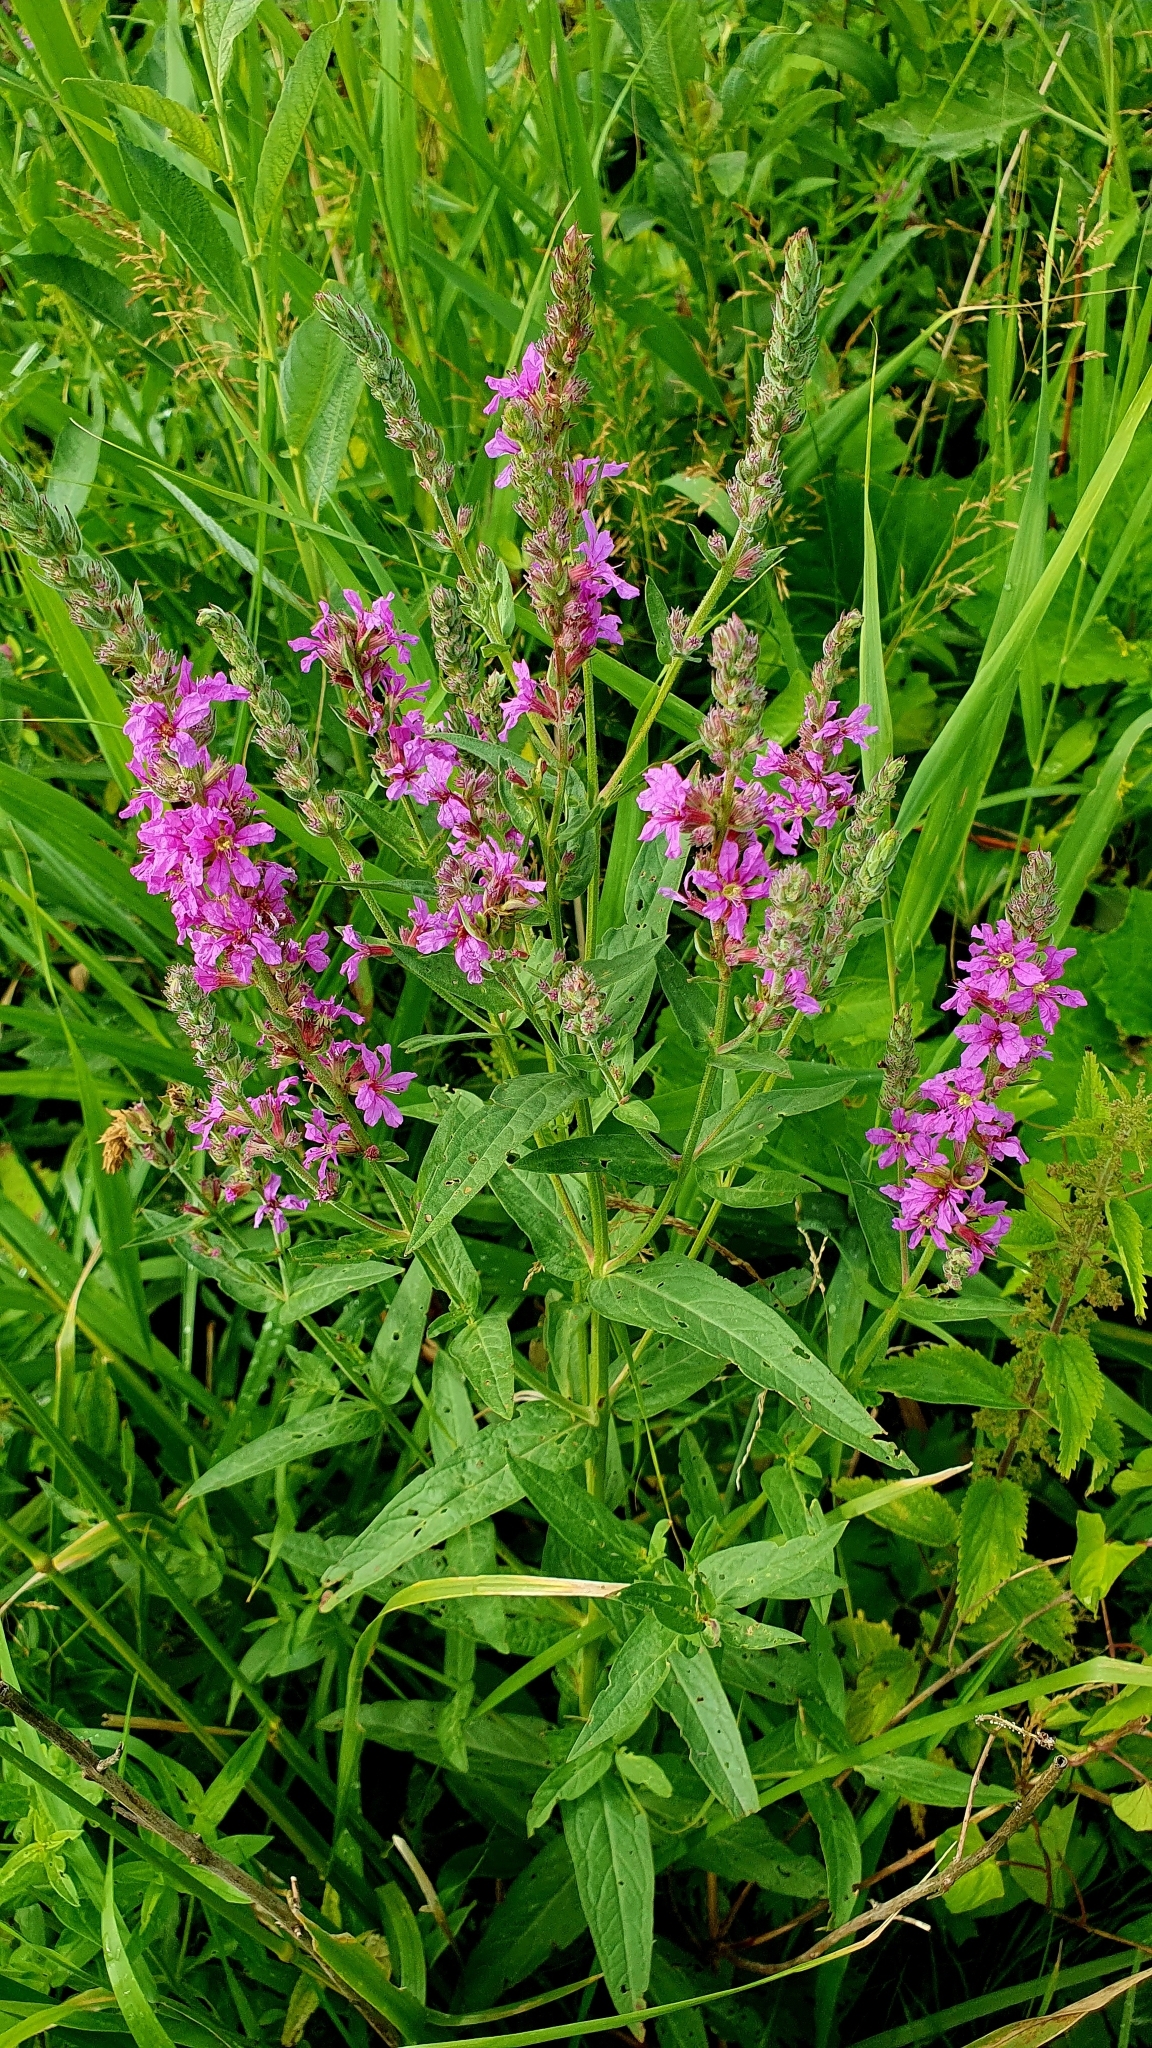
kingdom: Plantae
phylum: Tracheophyta
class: Magnoliopsida
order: Myrtales
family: Lythraceae
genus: Lythrum
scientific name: Lythrum salicaria
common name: Purple loosestrife
